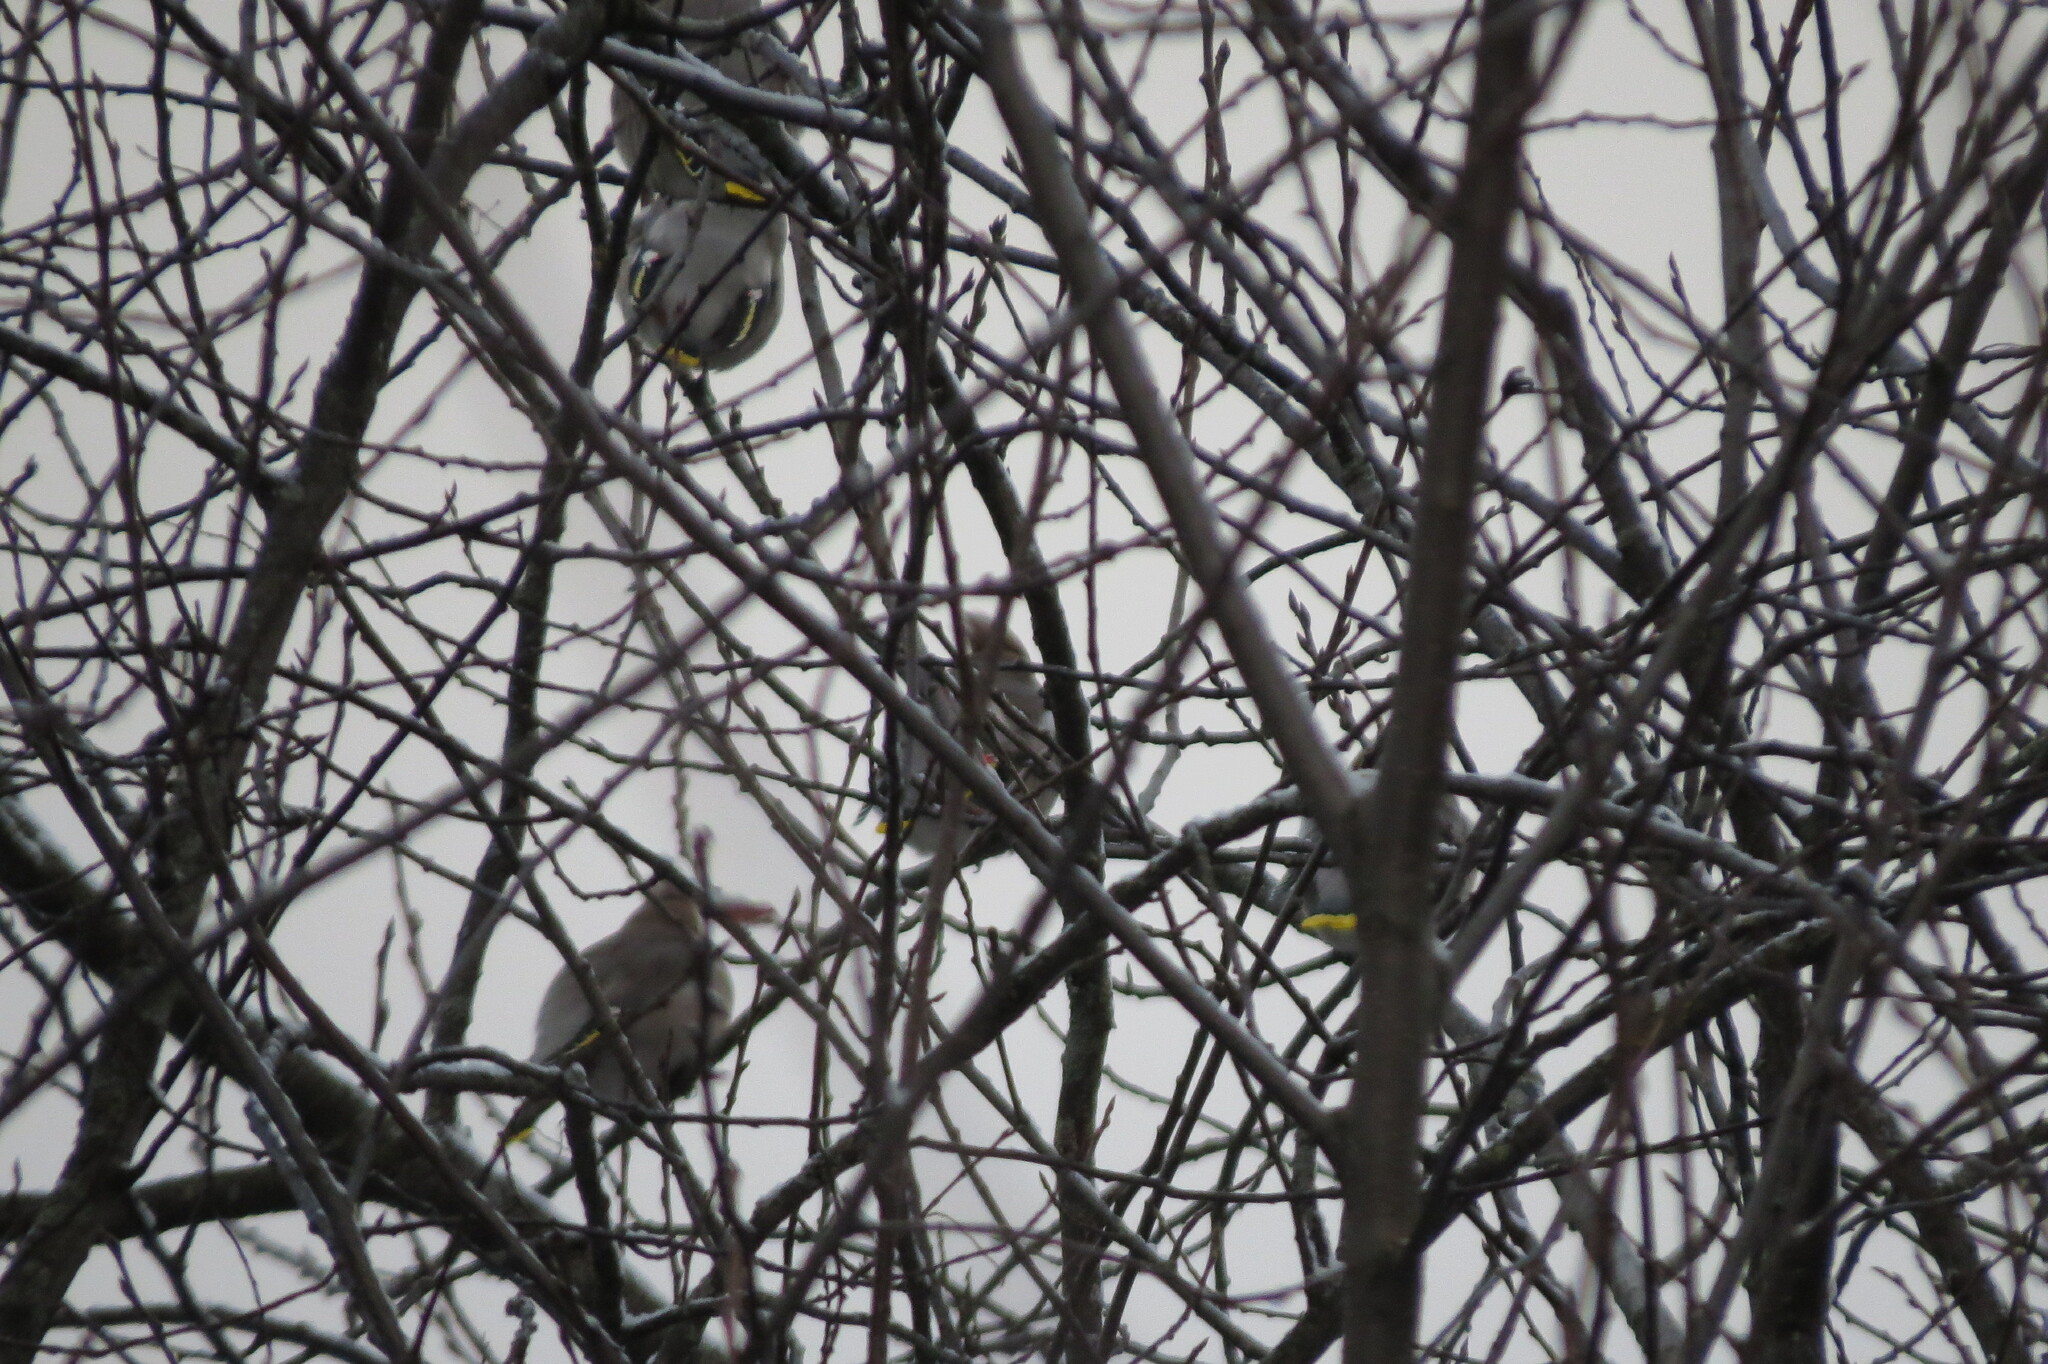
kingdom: Animalia
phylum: Chordata
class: Aves
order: Passeriformes
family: Bombycillidae
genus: Bombycilla
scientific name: Bombycilla garrulus
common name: Bohemian waxwing
